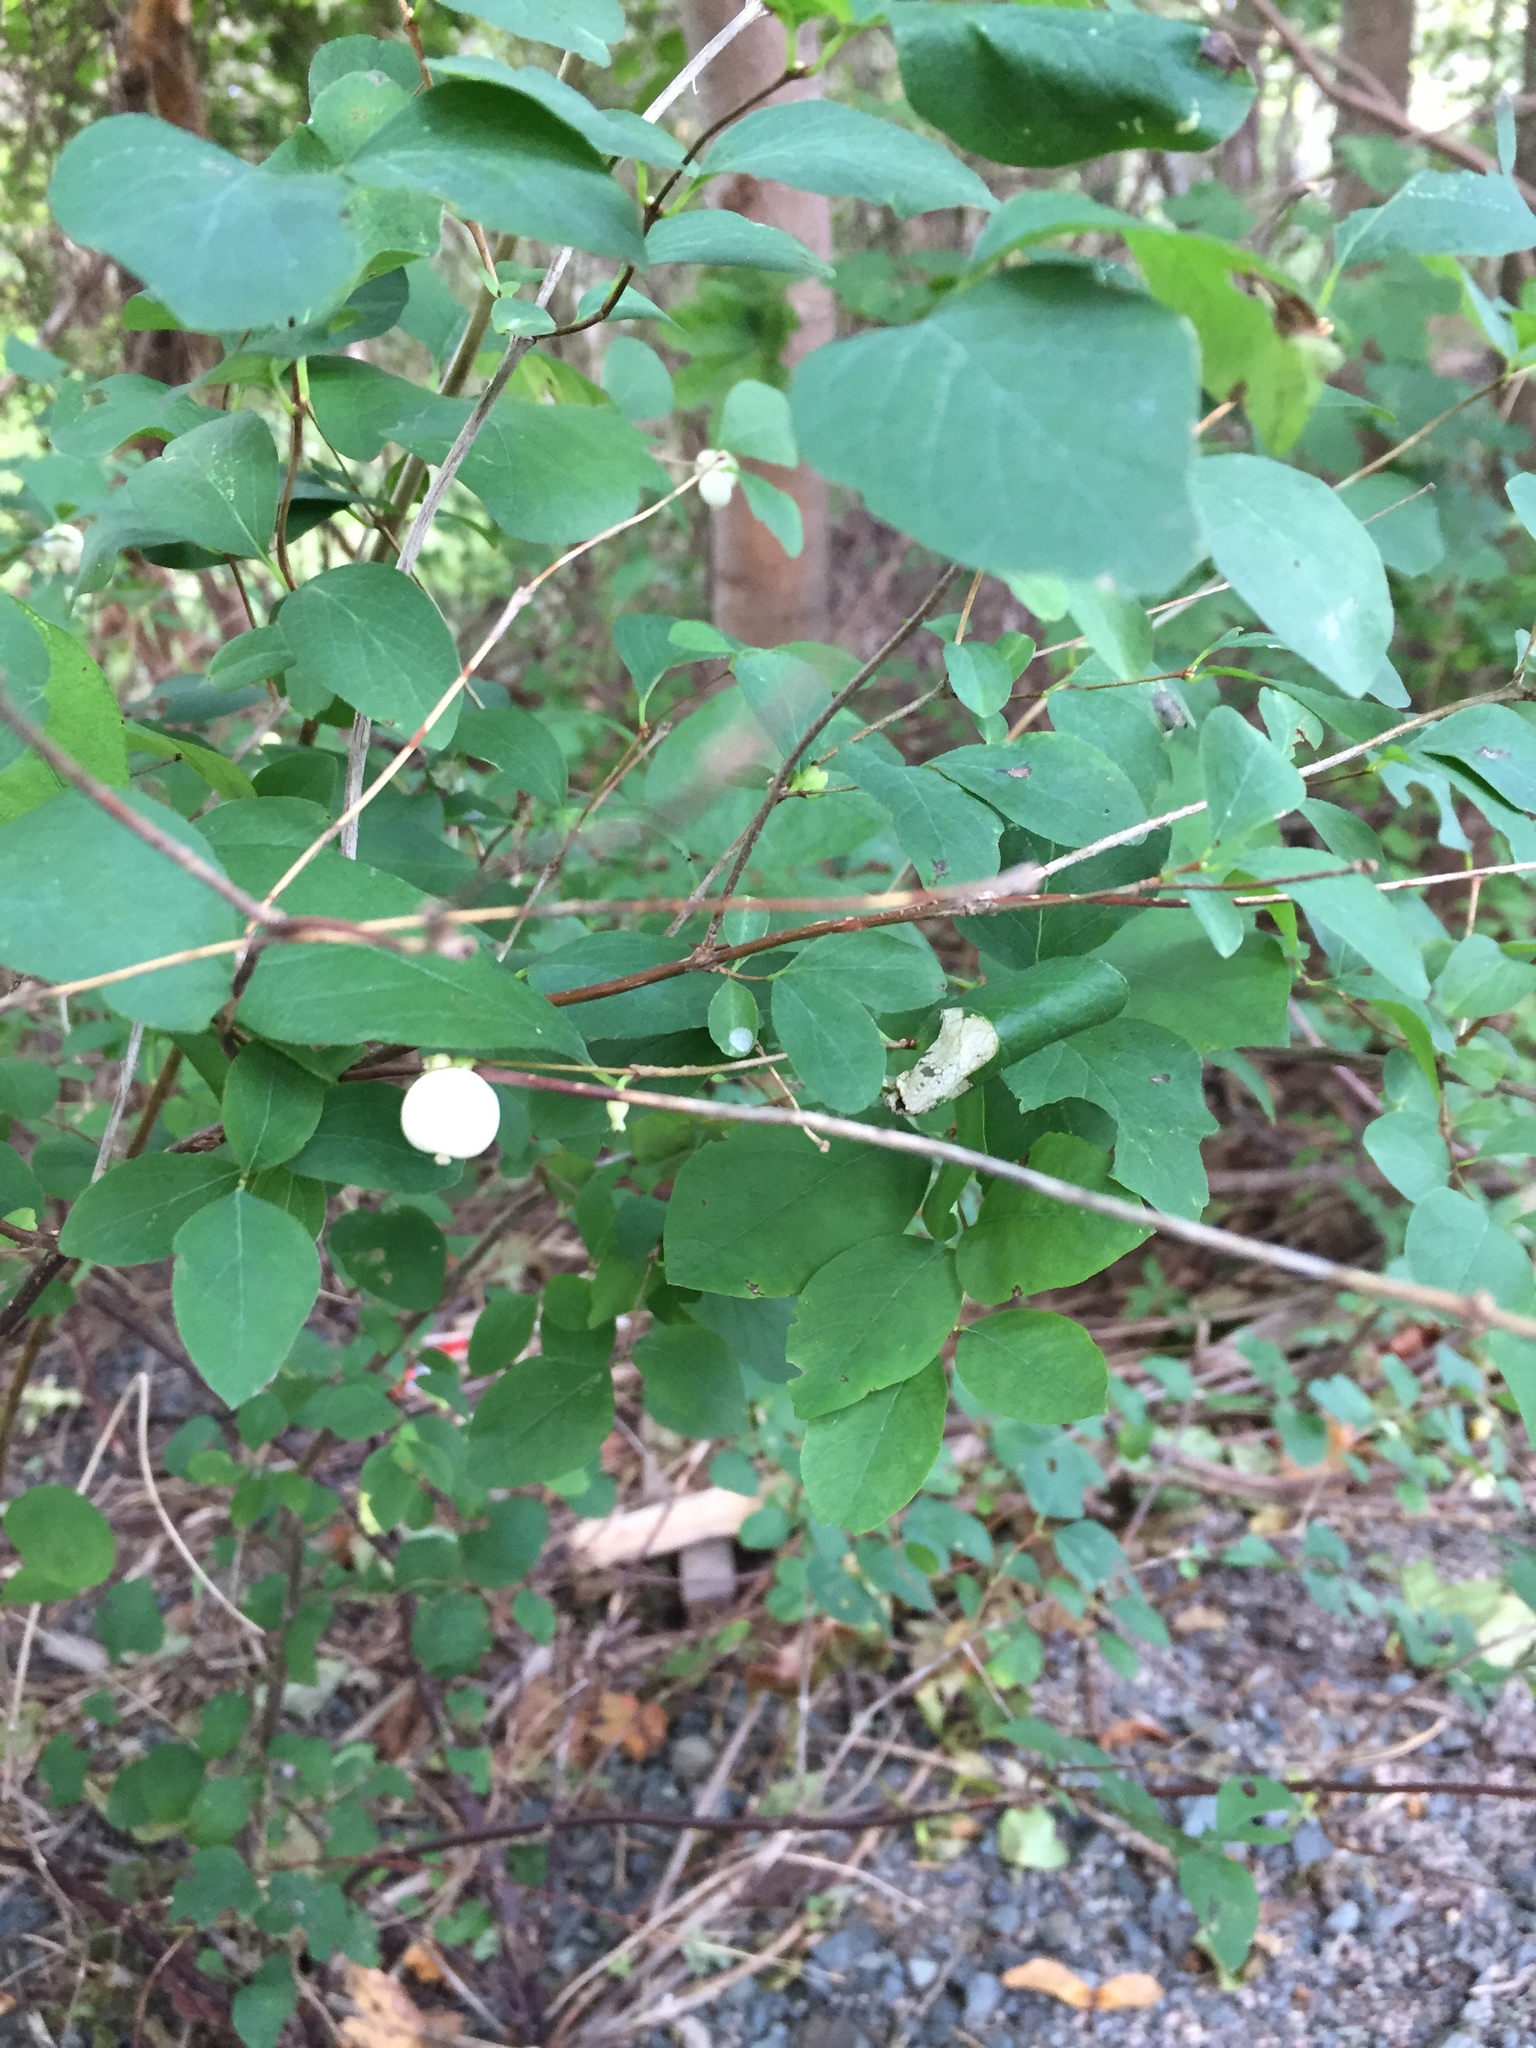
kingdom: Plantae
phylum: Tracheophyta
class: Magnoliopsida
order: Dipsacales
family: Caprifoliaceae
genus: Symphoricarpos
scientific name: Symphoricarpos albus
